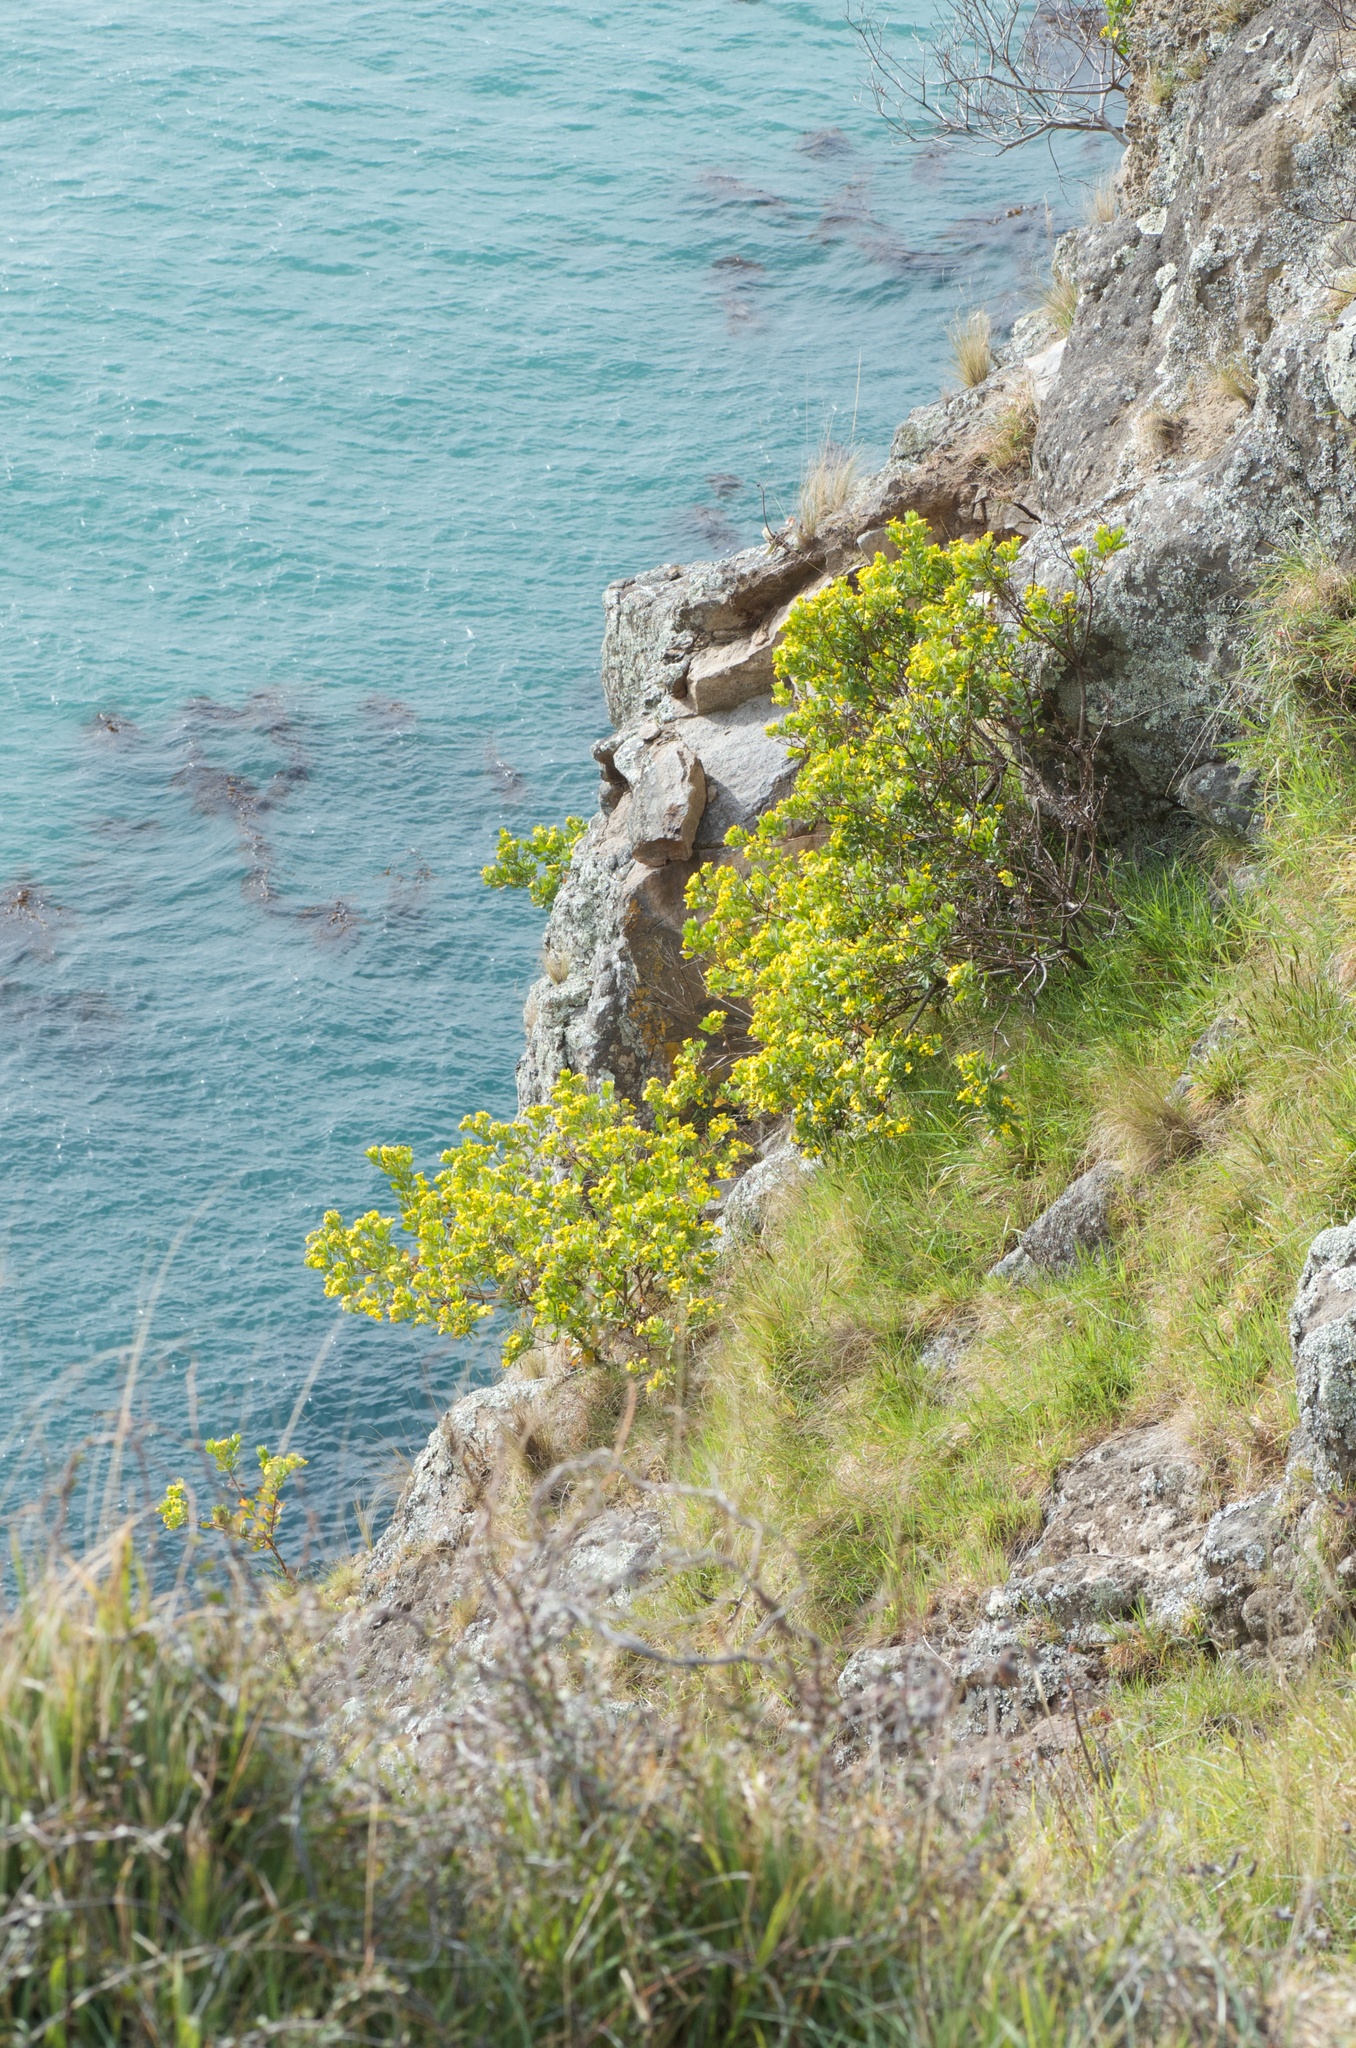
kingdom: Plantae
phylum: Tracheophyta
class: Magnoliopsida
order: Asterales
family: Asteraceae
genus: Osteospermum
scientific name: Osteospermum moniliferum
